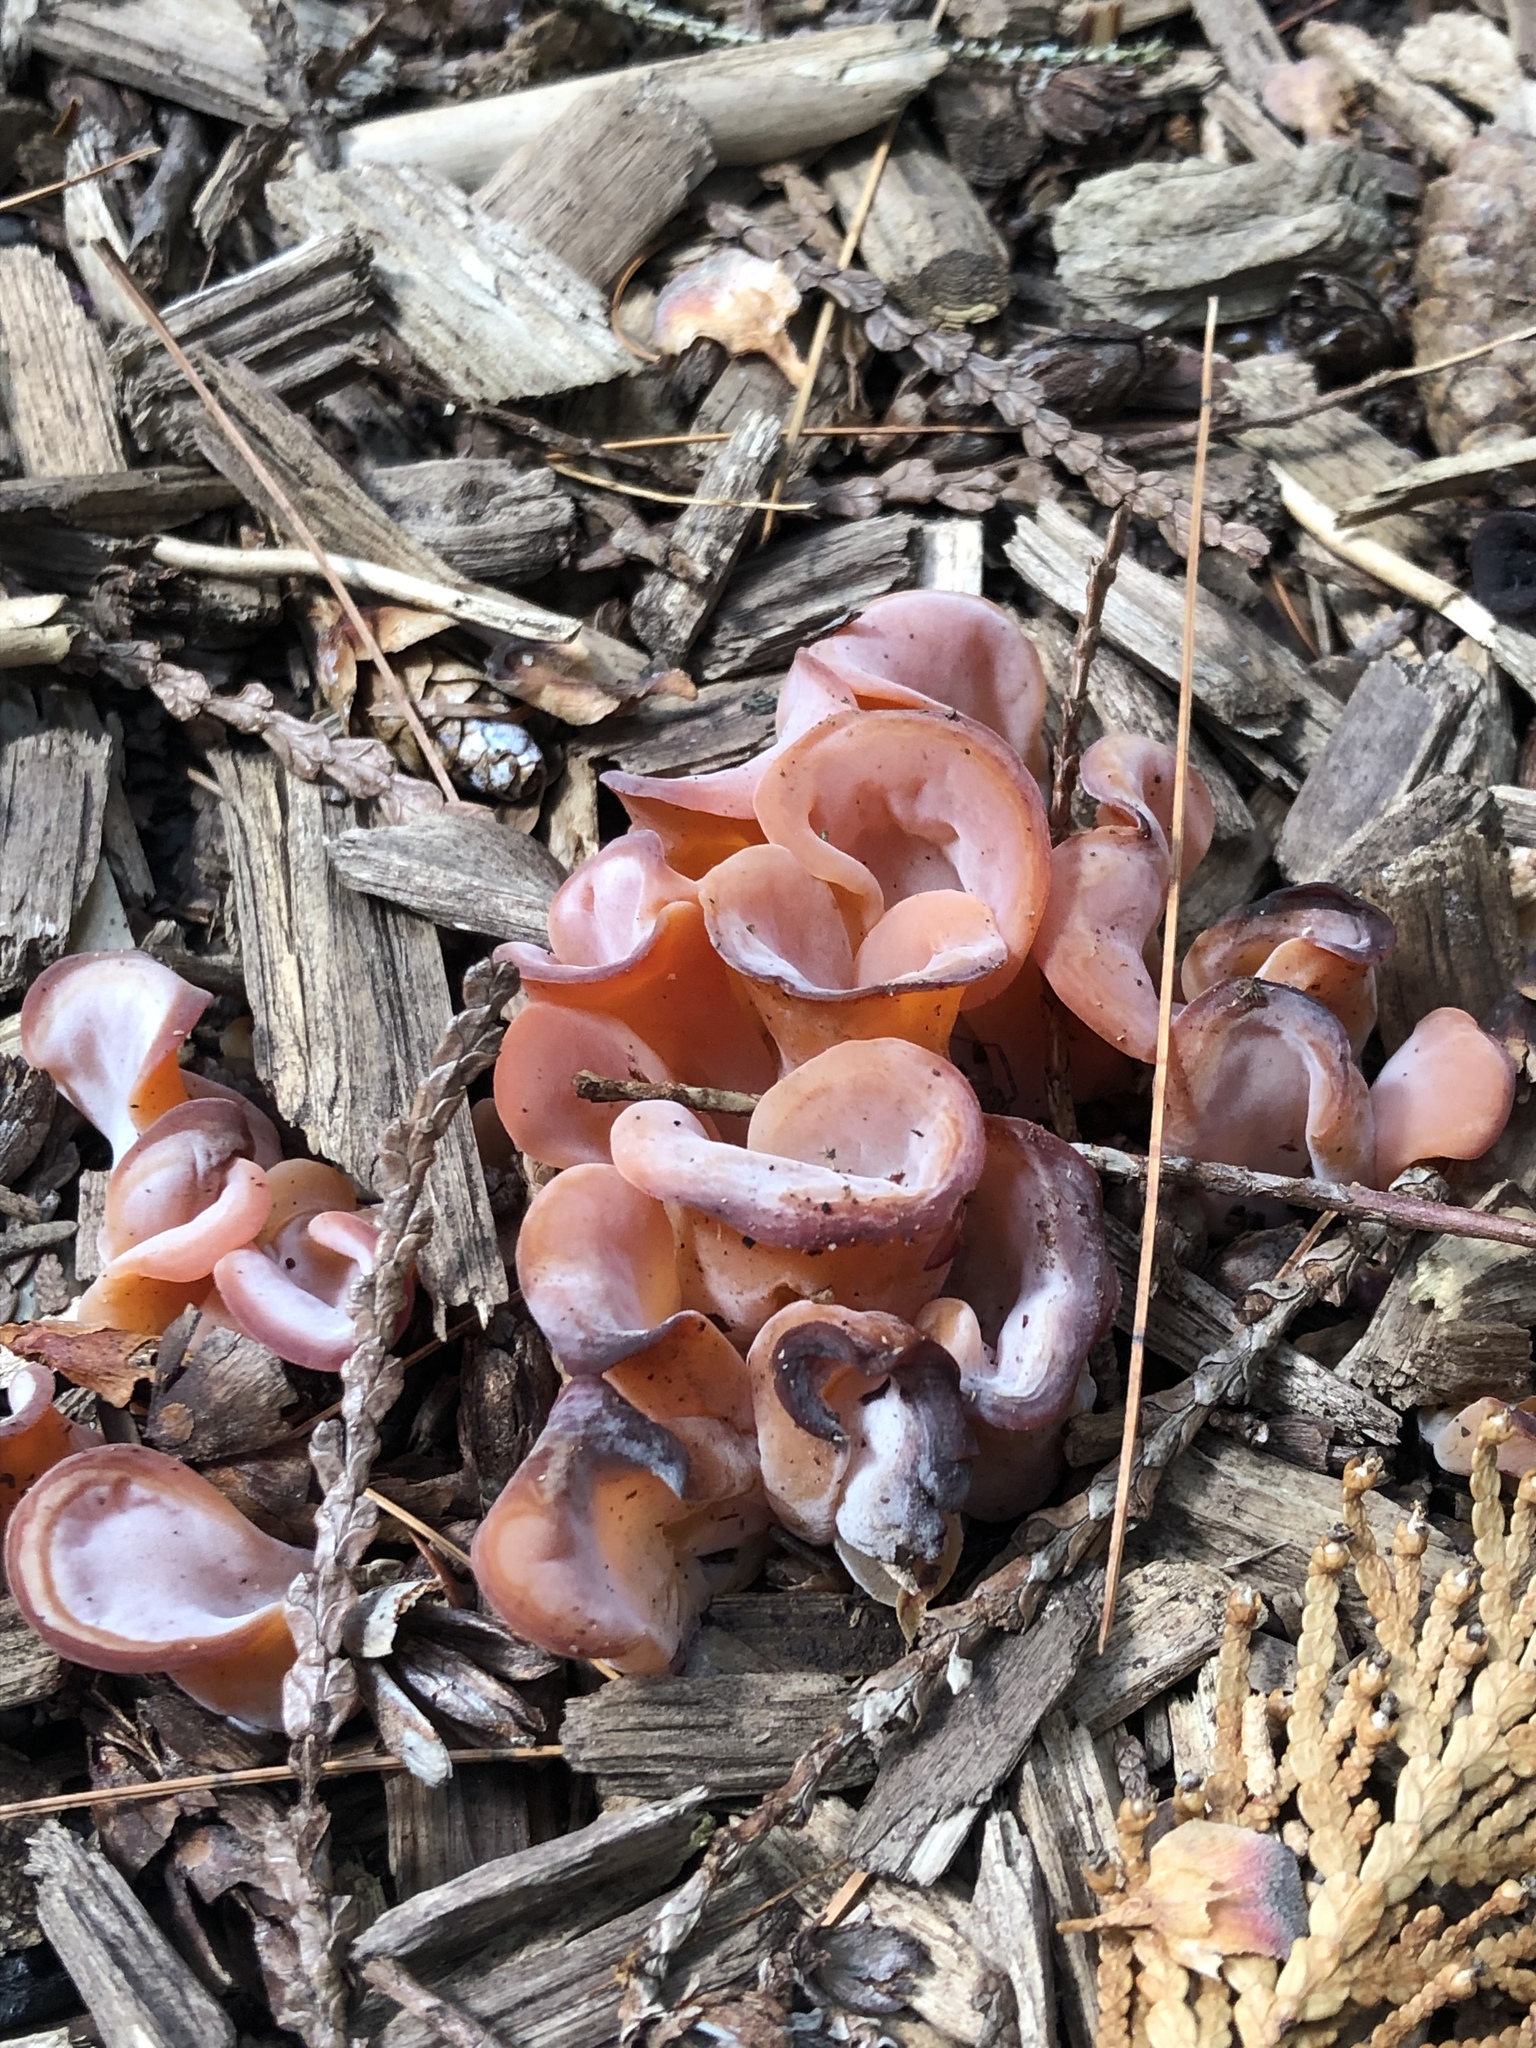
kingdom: Fungi
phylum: Basidiomycota
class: Agaricomycetes
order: Auriculariales
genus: Guepinia
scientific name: Guepinia helvelloides
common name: Salmon salad
